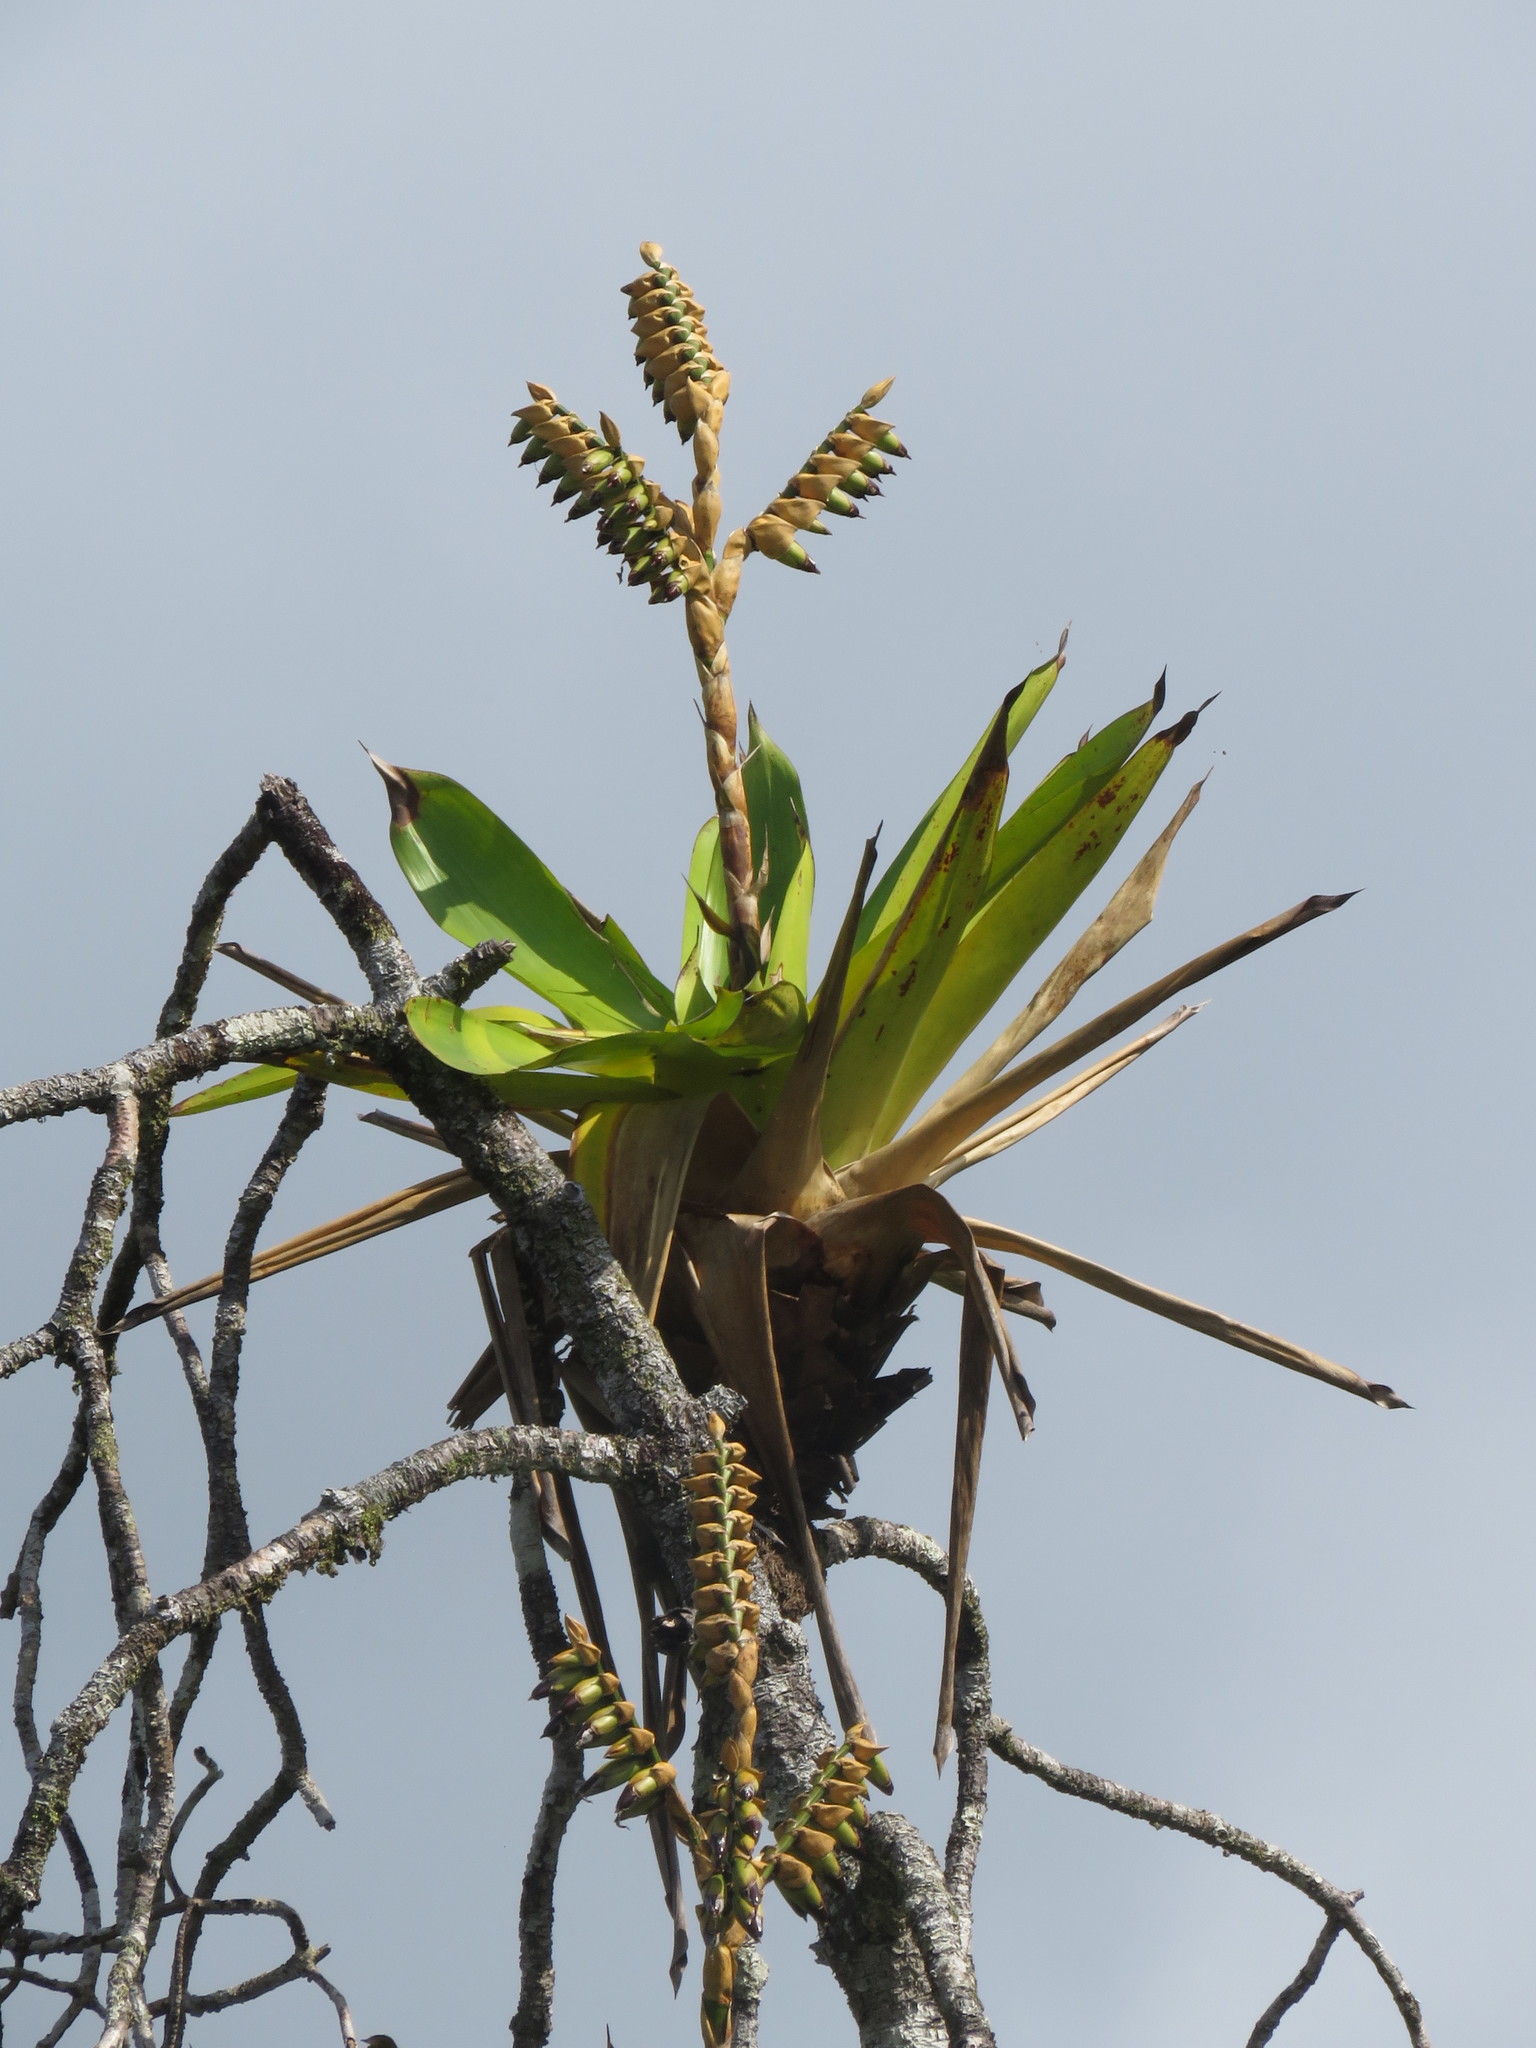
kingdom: Plantae
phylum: Tracheophyta
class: Liliopsida
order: Poales
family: Bromeliaceae
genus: Werauhia
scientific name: Werauhia sanguinolenta
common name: Bromeliad
